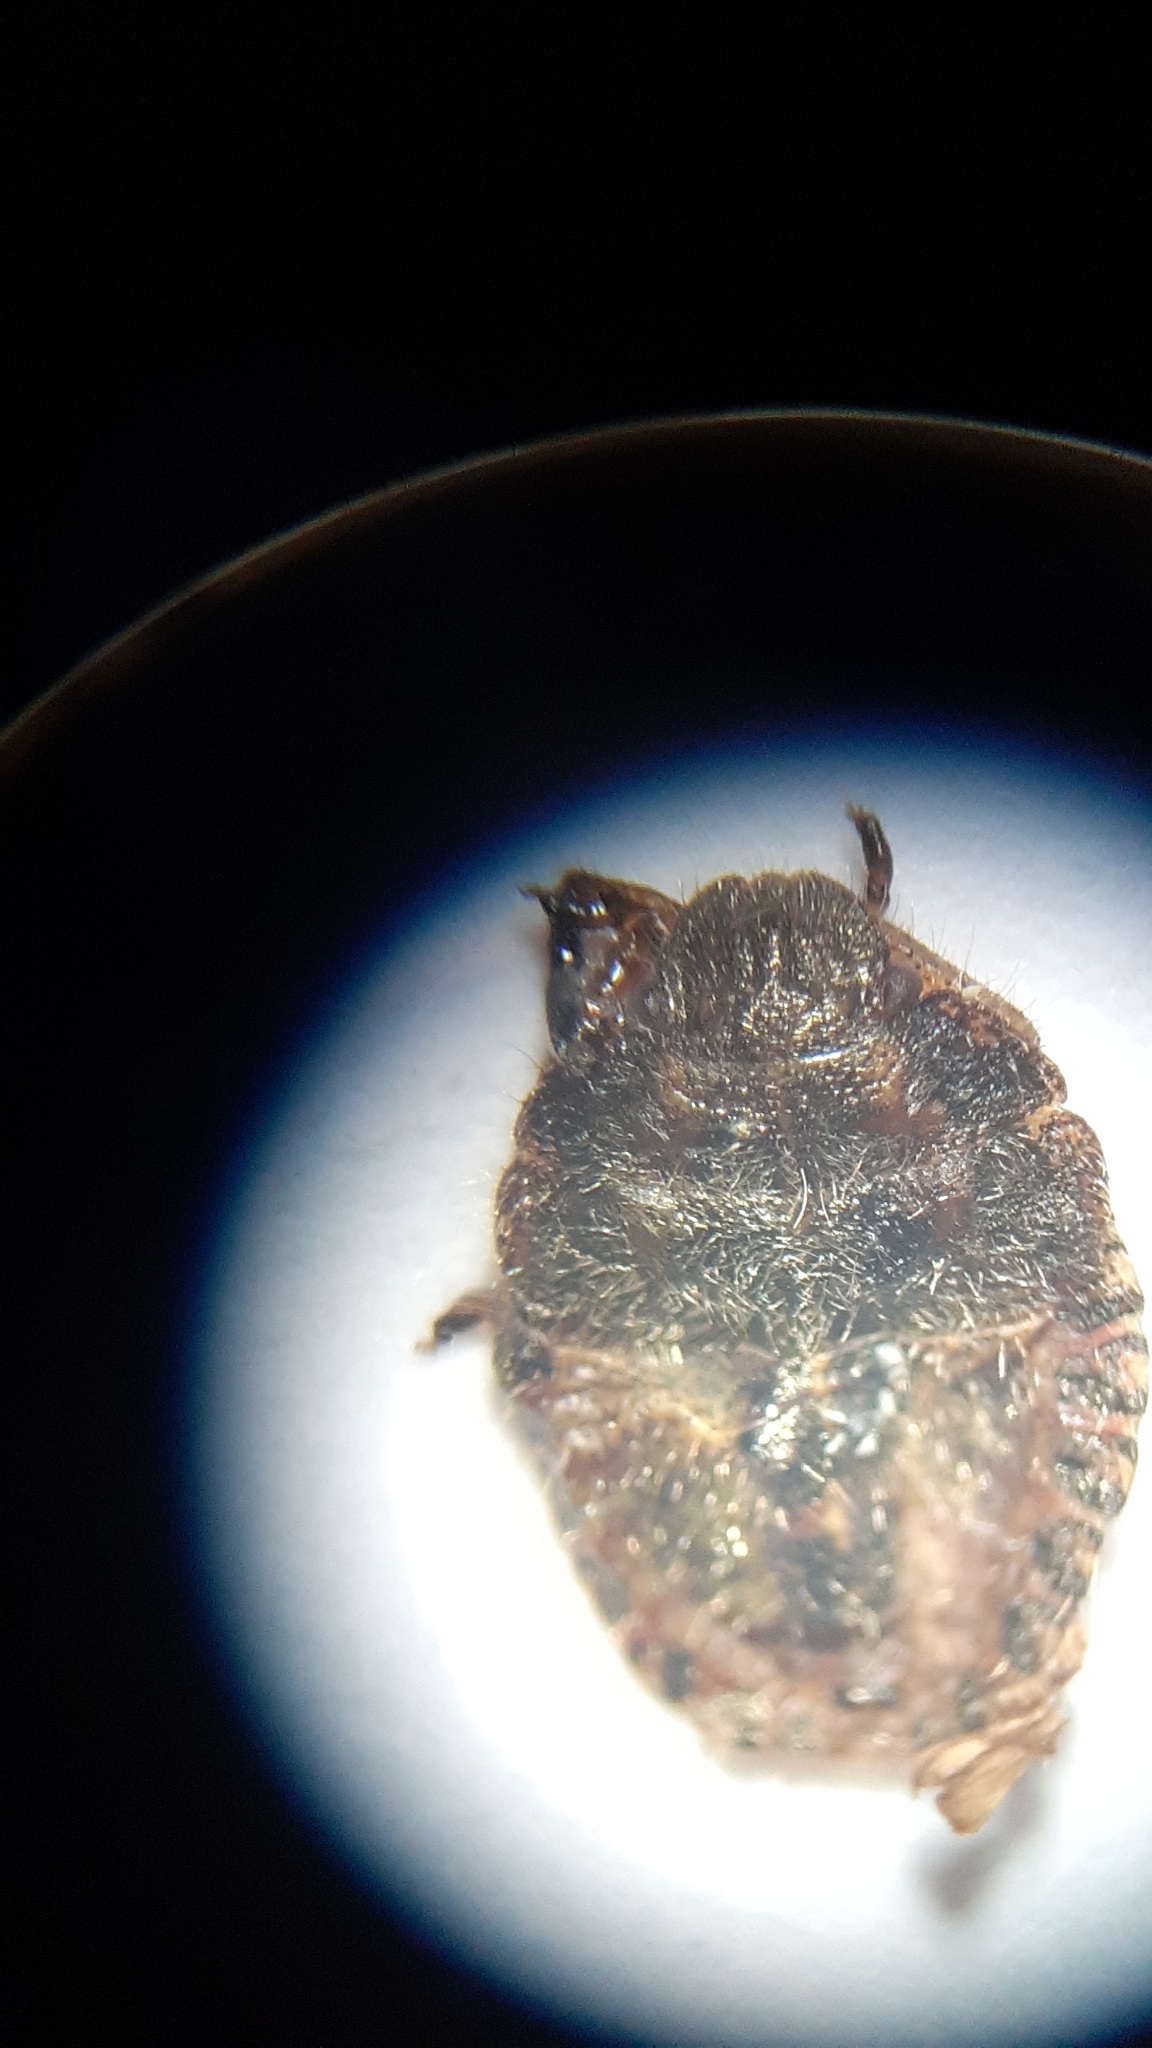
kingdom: Animalia
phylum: Arthropoda
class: Insecta
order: Hemiptera
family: Pentatomidae
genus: Dolycoris
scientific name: Dolycoris baccarum
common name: Sloe bug
